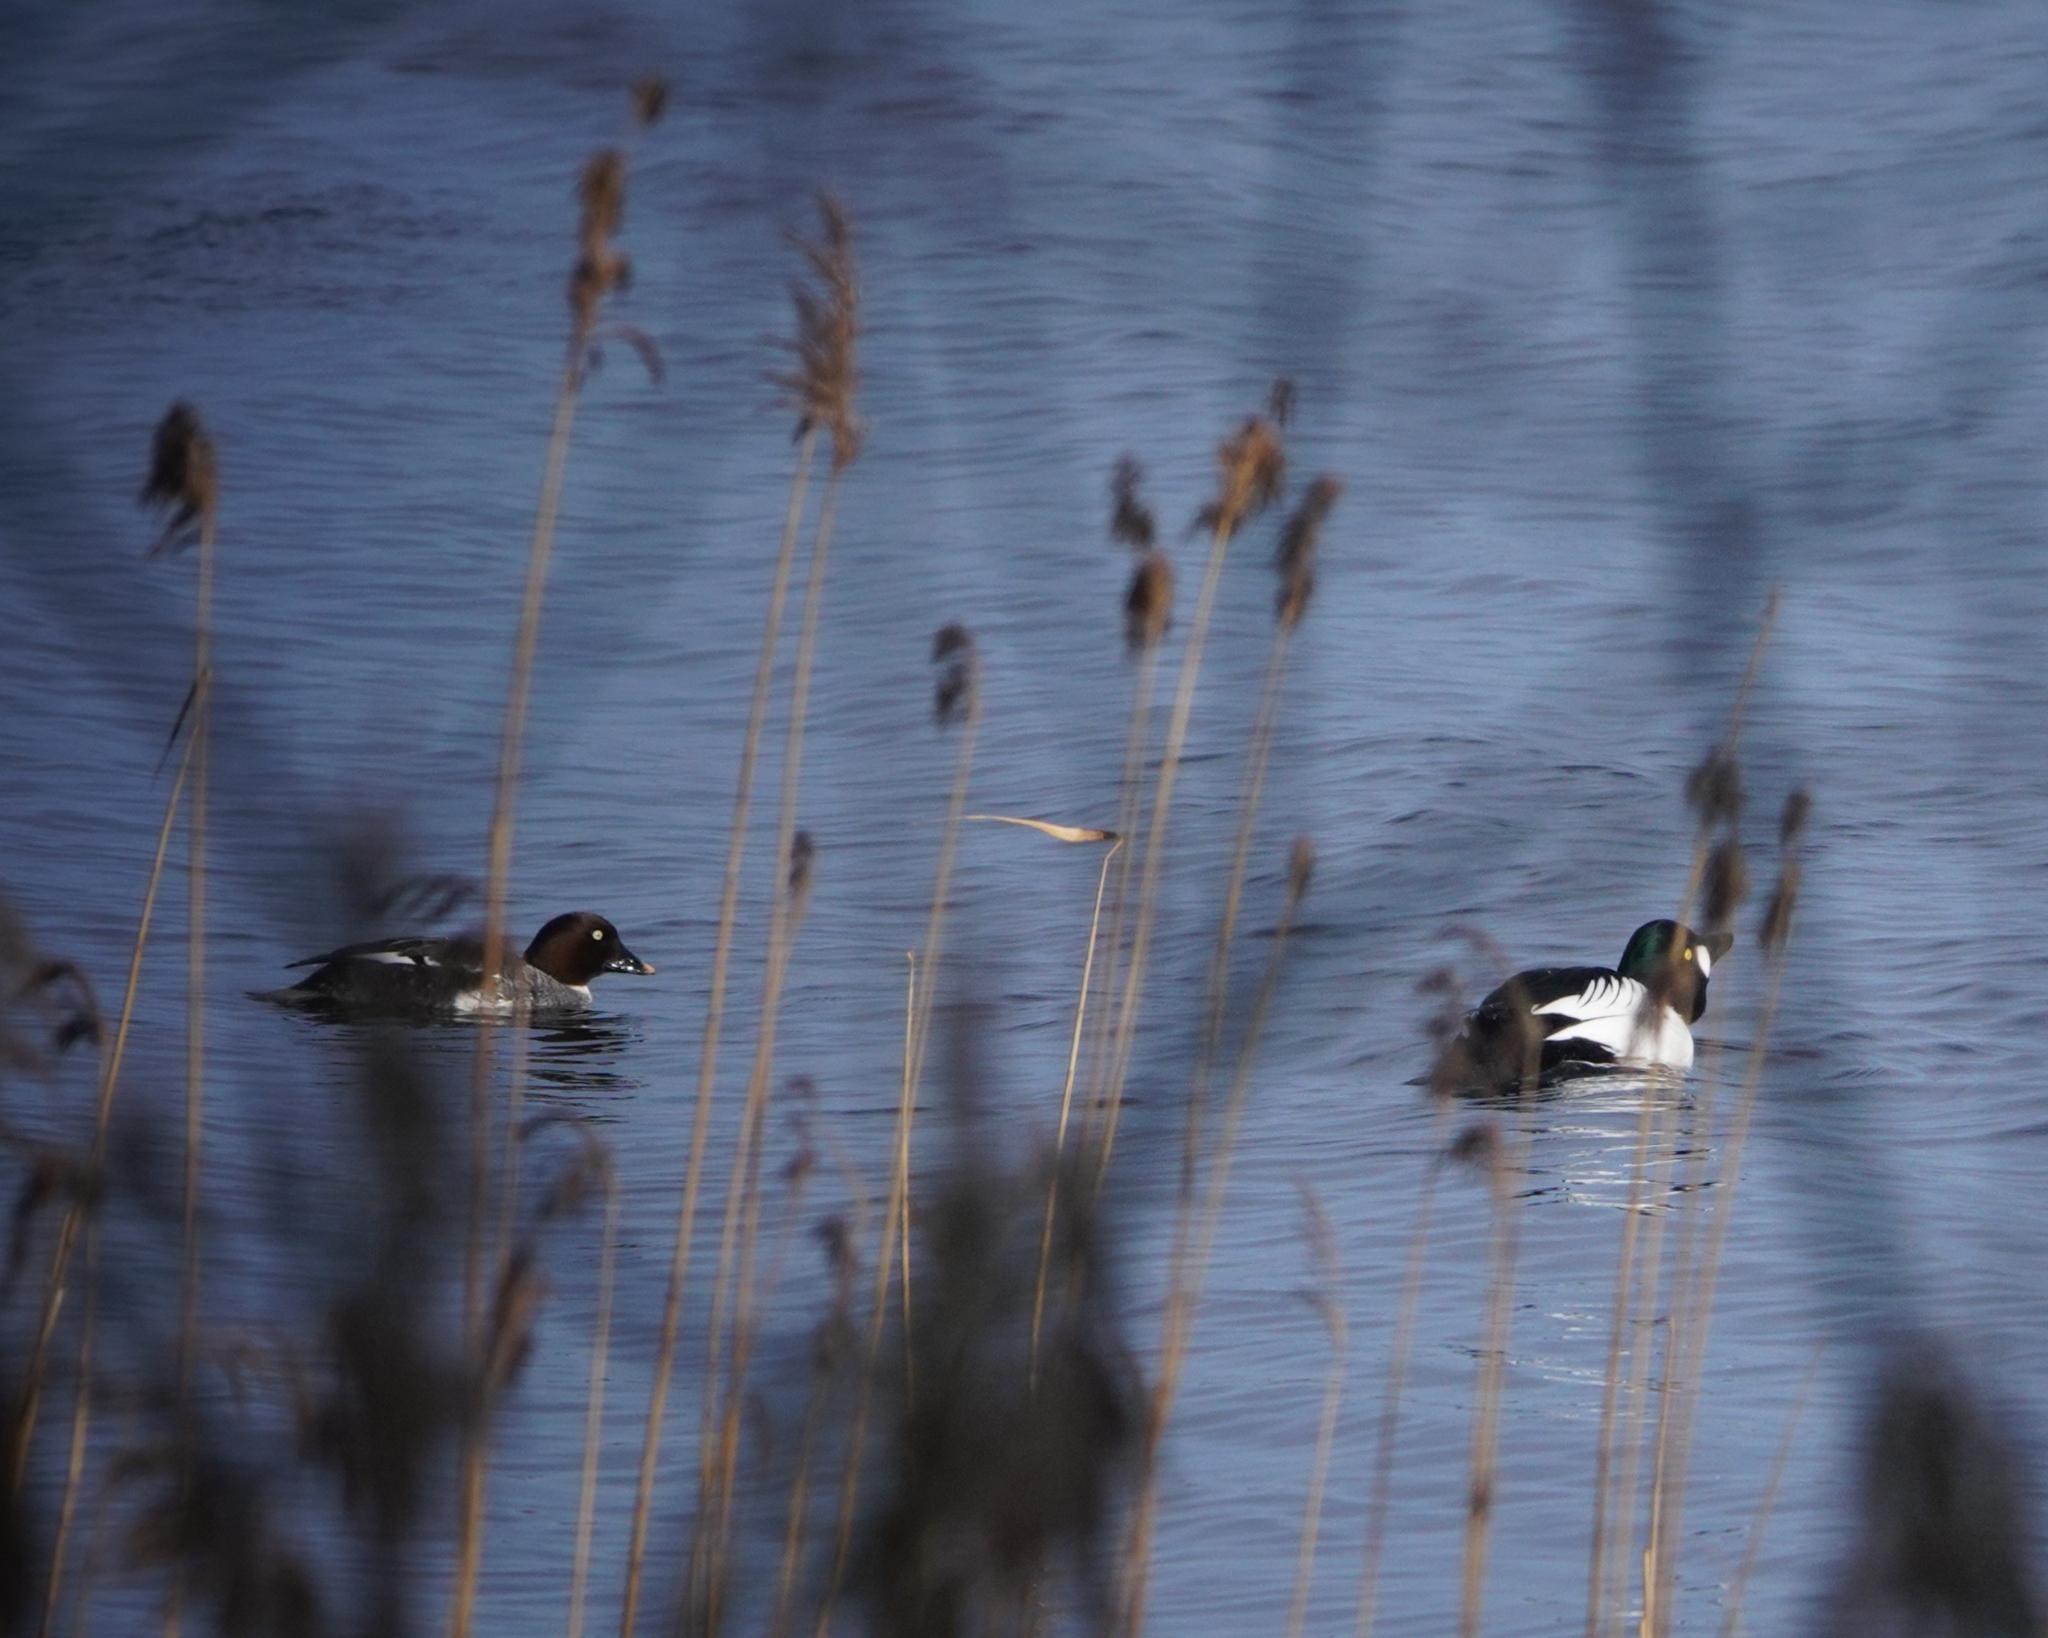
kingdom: Animalia
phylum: Chordata
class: Aves
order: Anseriformes
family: Anatidae
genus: Bucephala
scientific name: Bucephala clangula
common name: Common goldeneye
